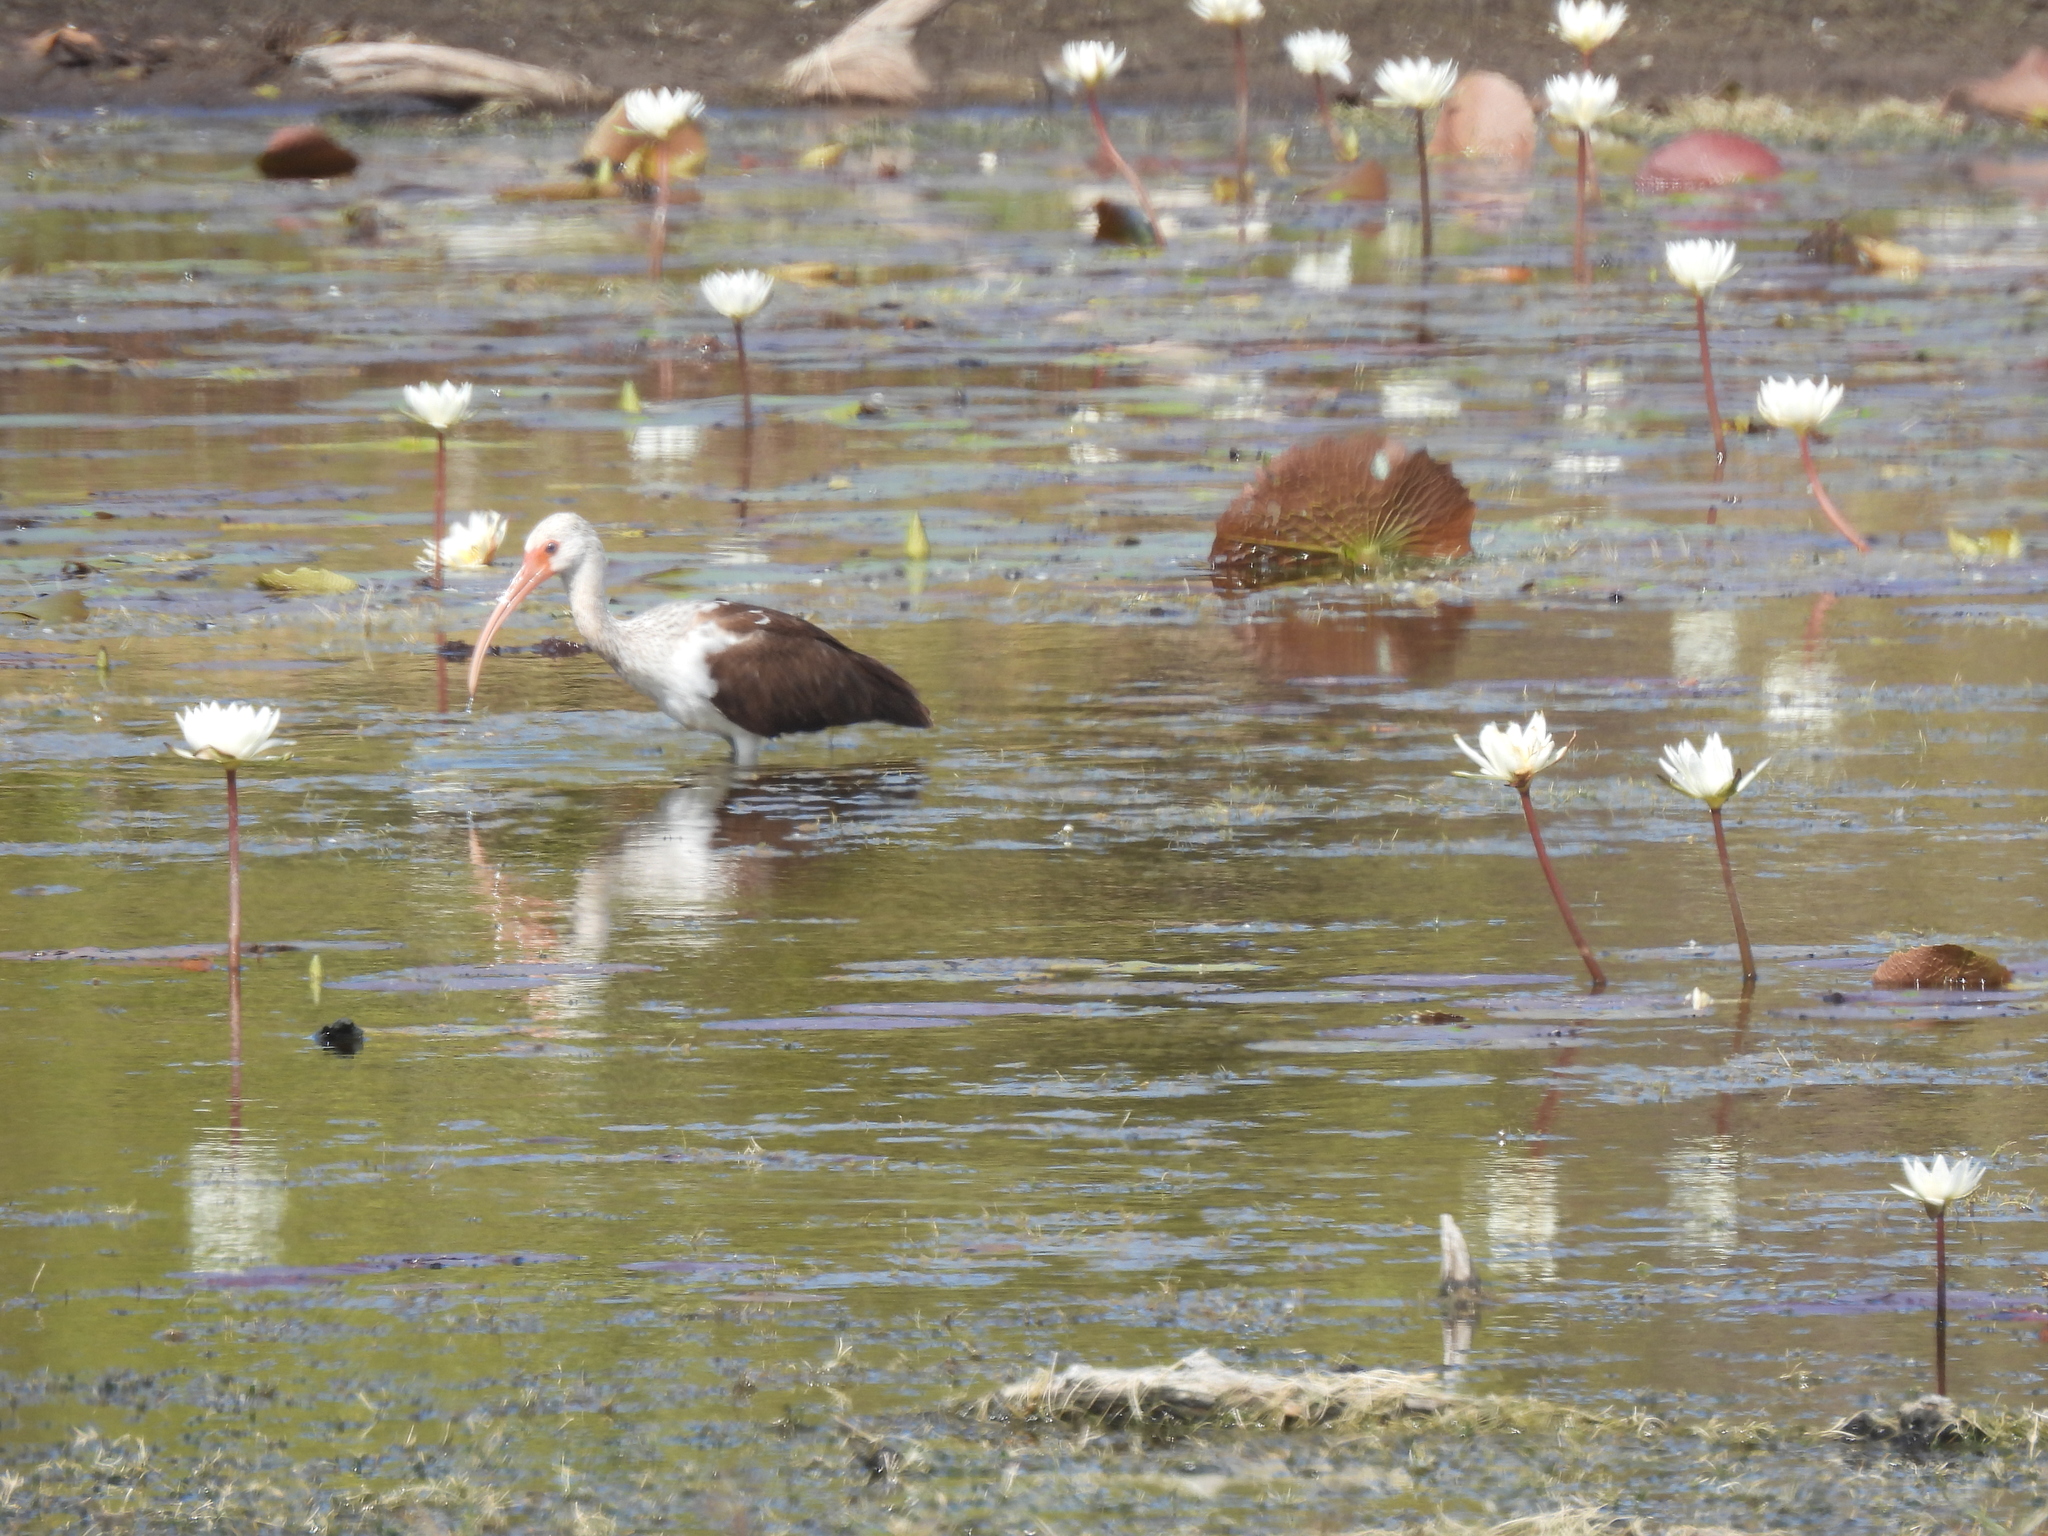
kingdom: Animalia
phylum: Chordata
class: Aves
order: Pelecaniformes
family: Threskiornithidae
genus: Eudocimus
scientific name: Eudocimus albus
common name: White ibis
